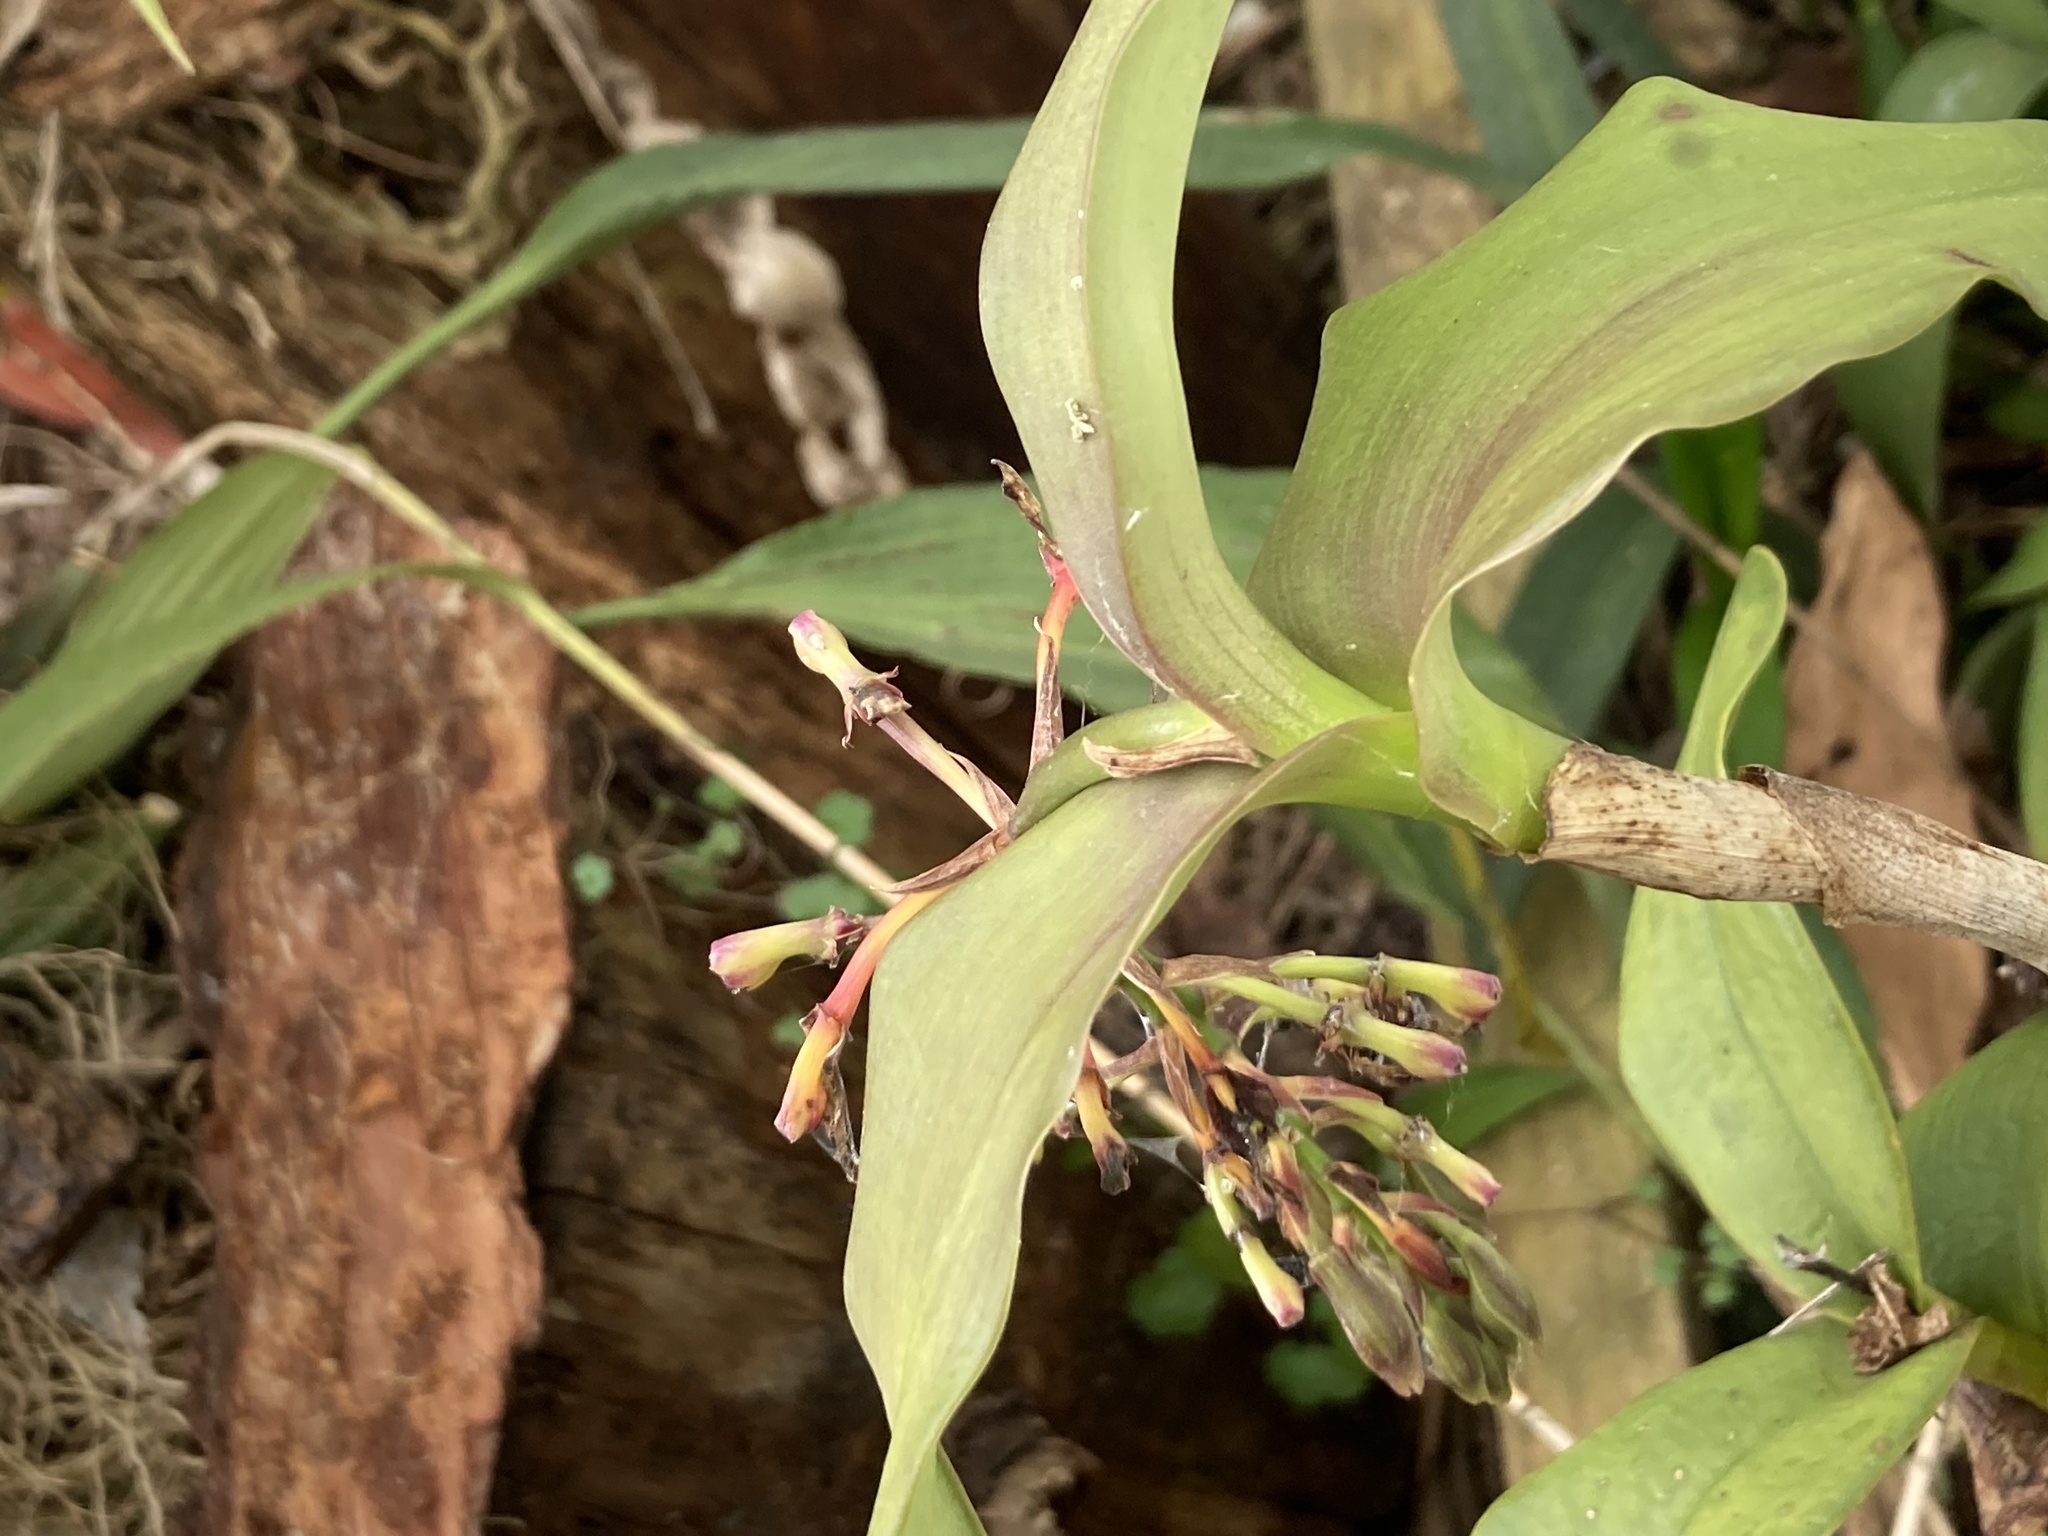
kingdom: Plantae
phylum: Tracheophyta
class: Liliopsida
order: Asparagales
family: Orchidaceae
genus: Epidendrum
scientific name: Epidendrum radioferens
